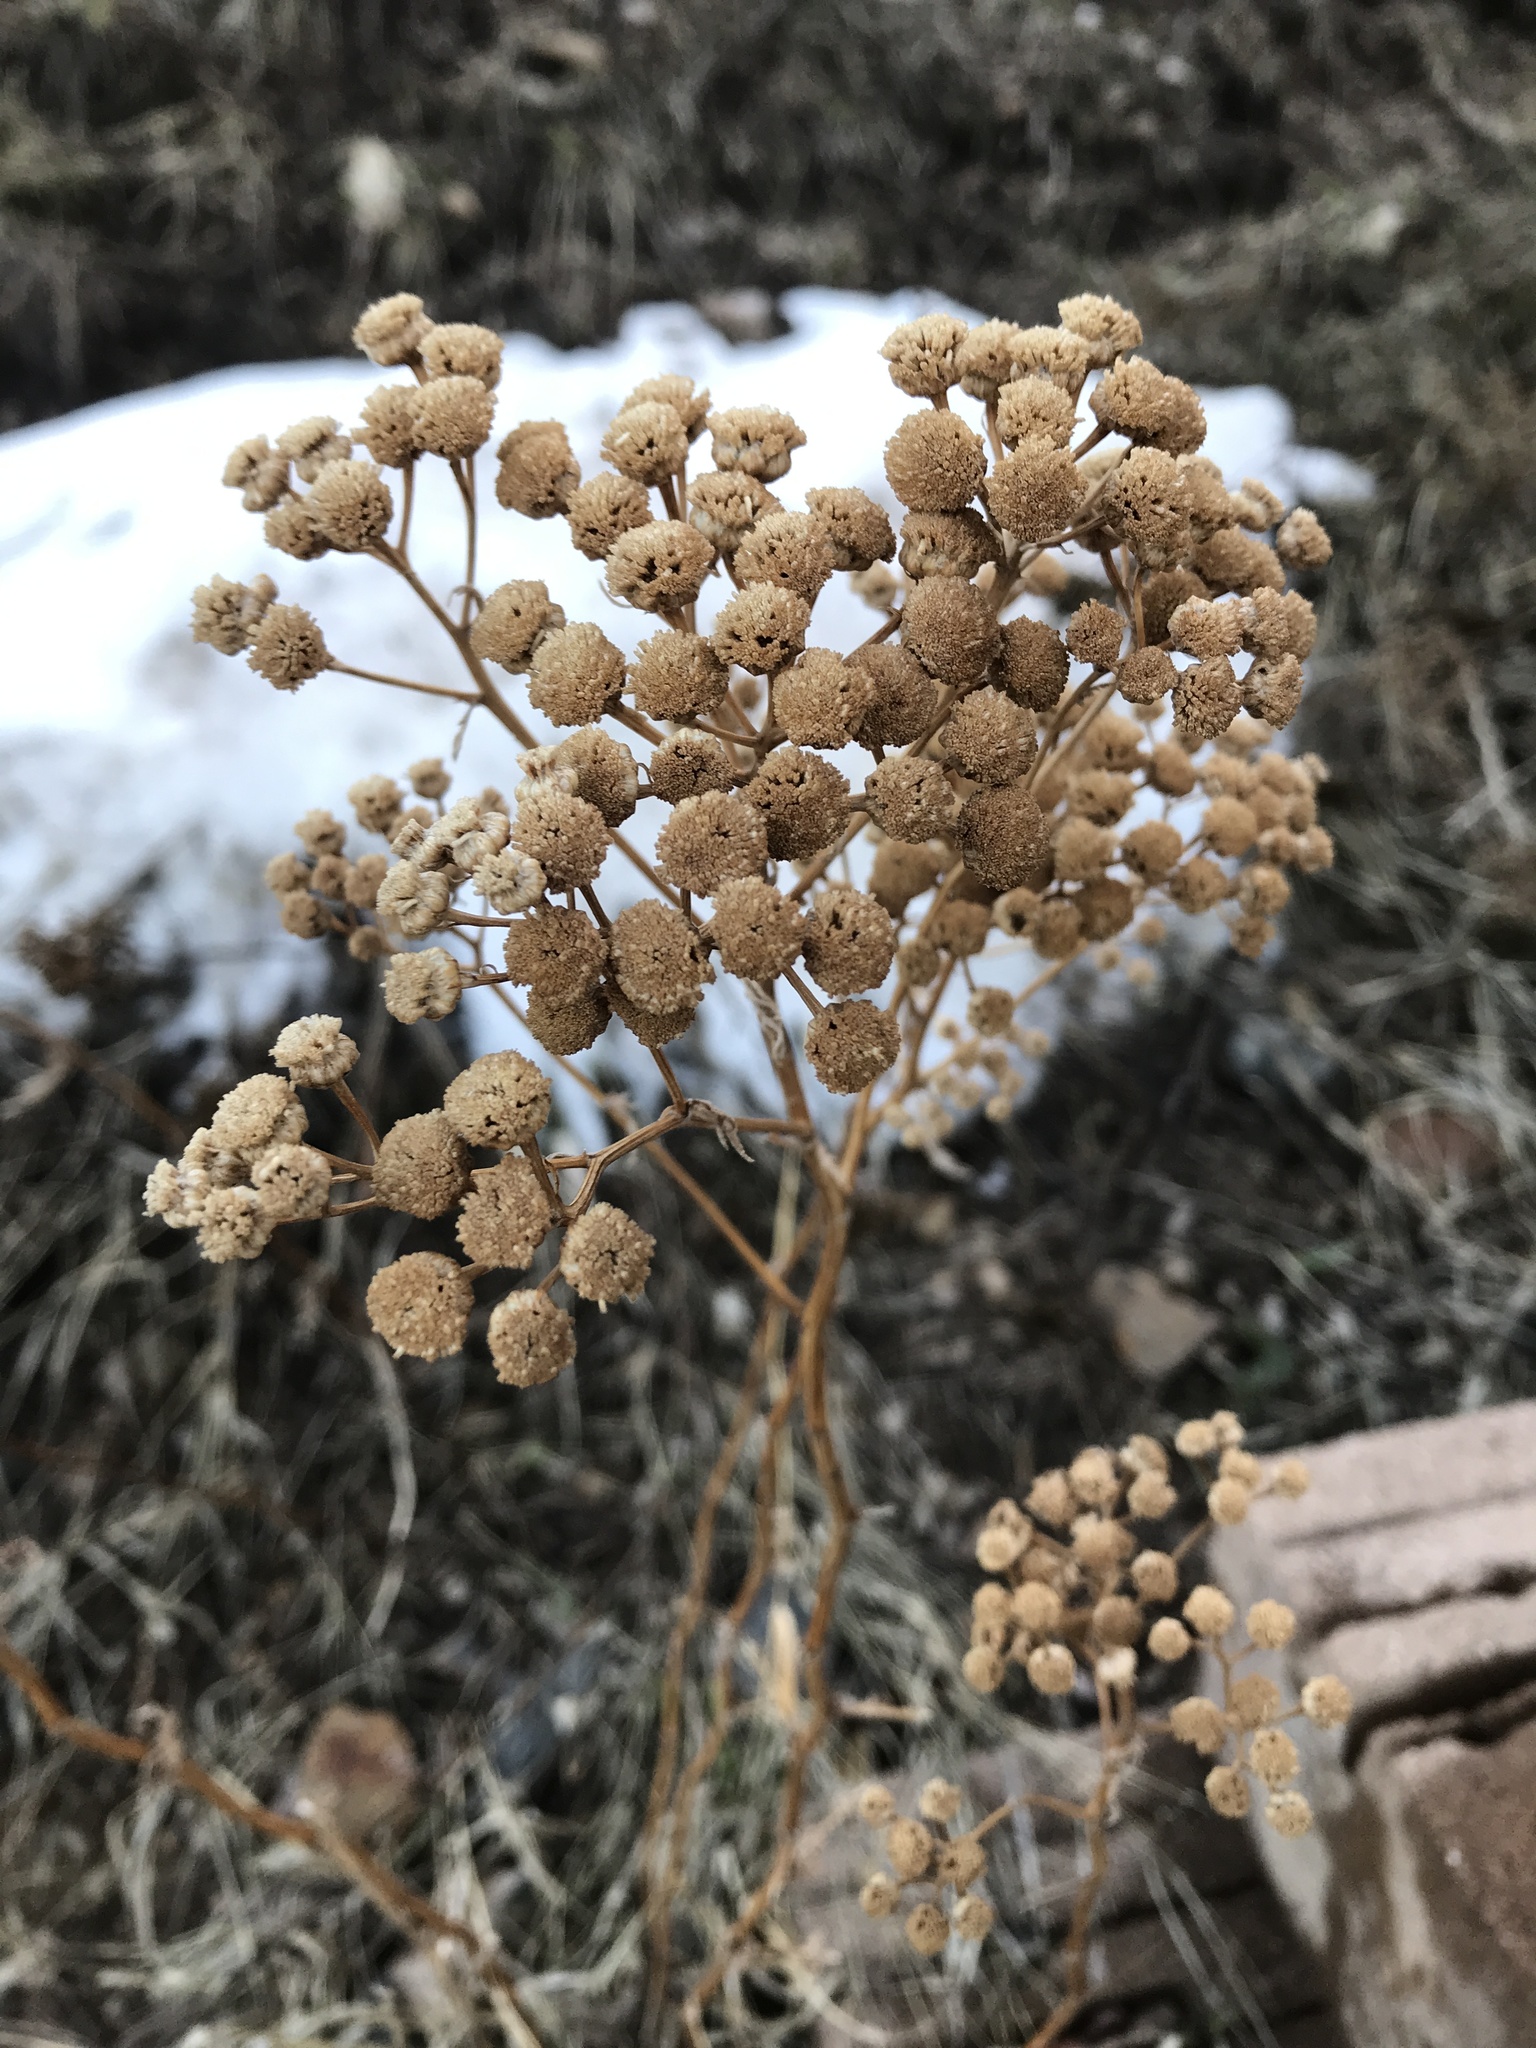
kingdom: Plantae
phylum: Tracheophyta
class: Magnoliopsida
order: Asterales
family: Asteraceae
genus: Tanacetum
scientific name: Tanacetum vulgare
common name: Common tansy
